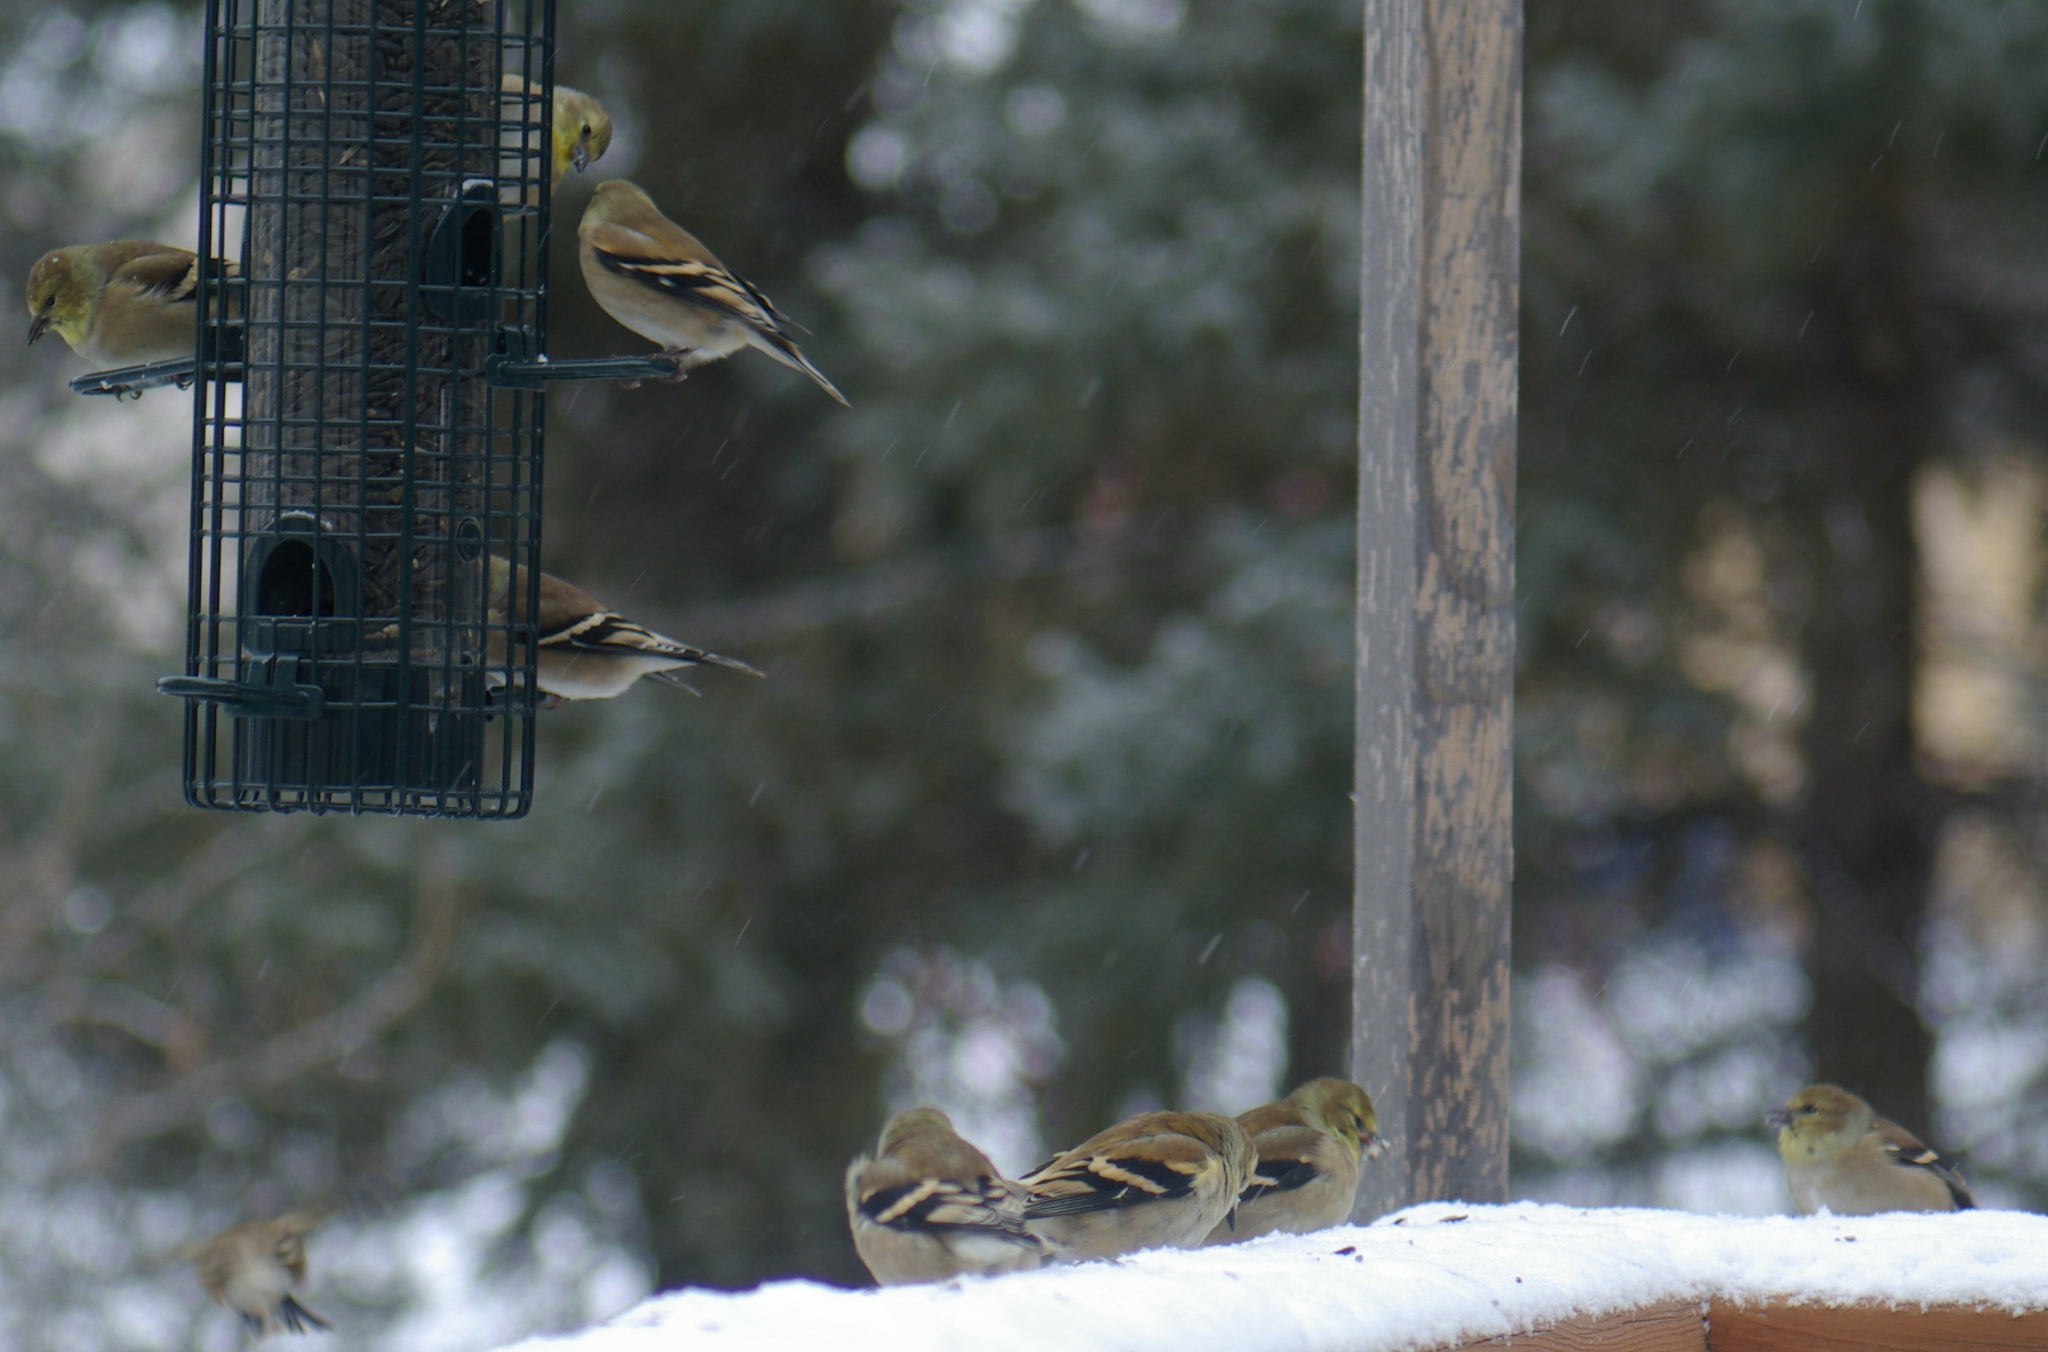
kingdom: Animalia
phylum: Chordata
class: Aves
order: Passeriformes
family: Fringillidae
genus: Spinus
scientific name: Spinus tristis
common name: American goldfinch
